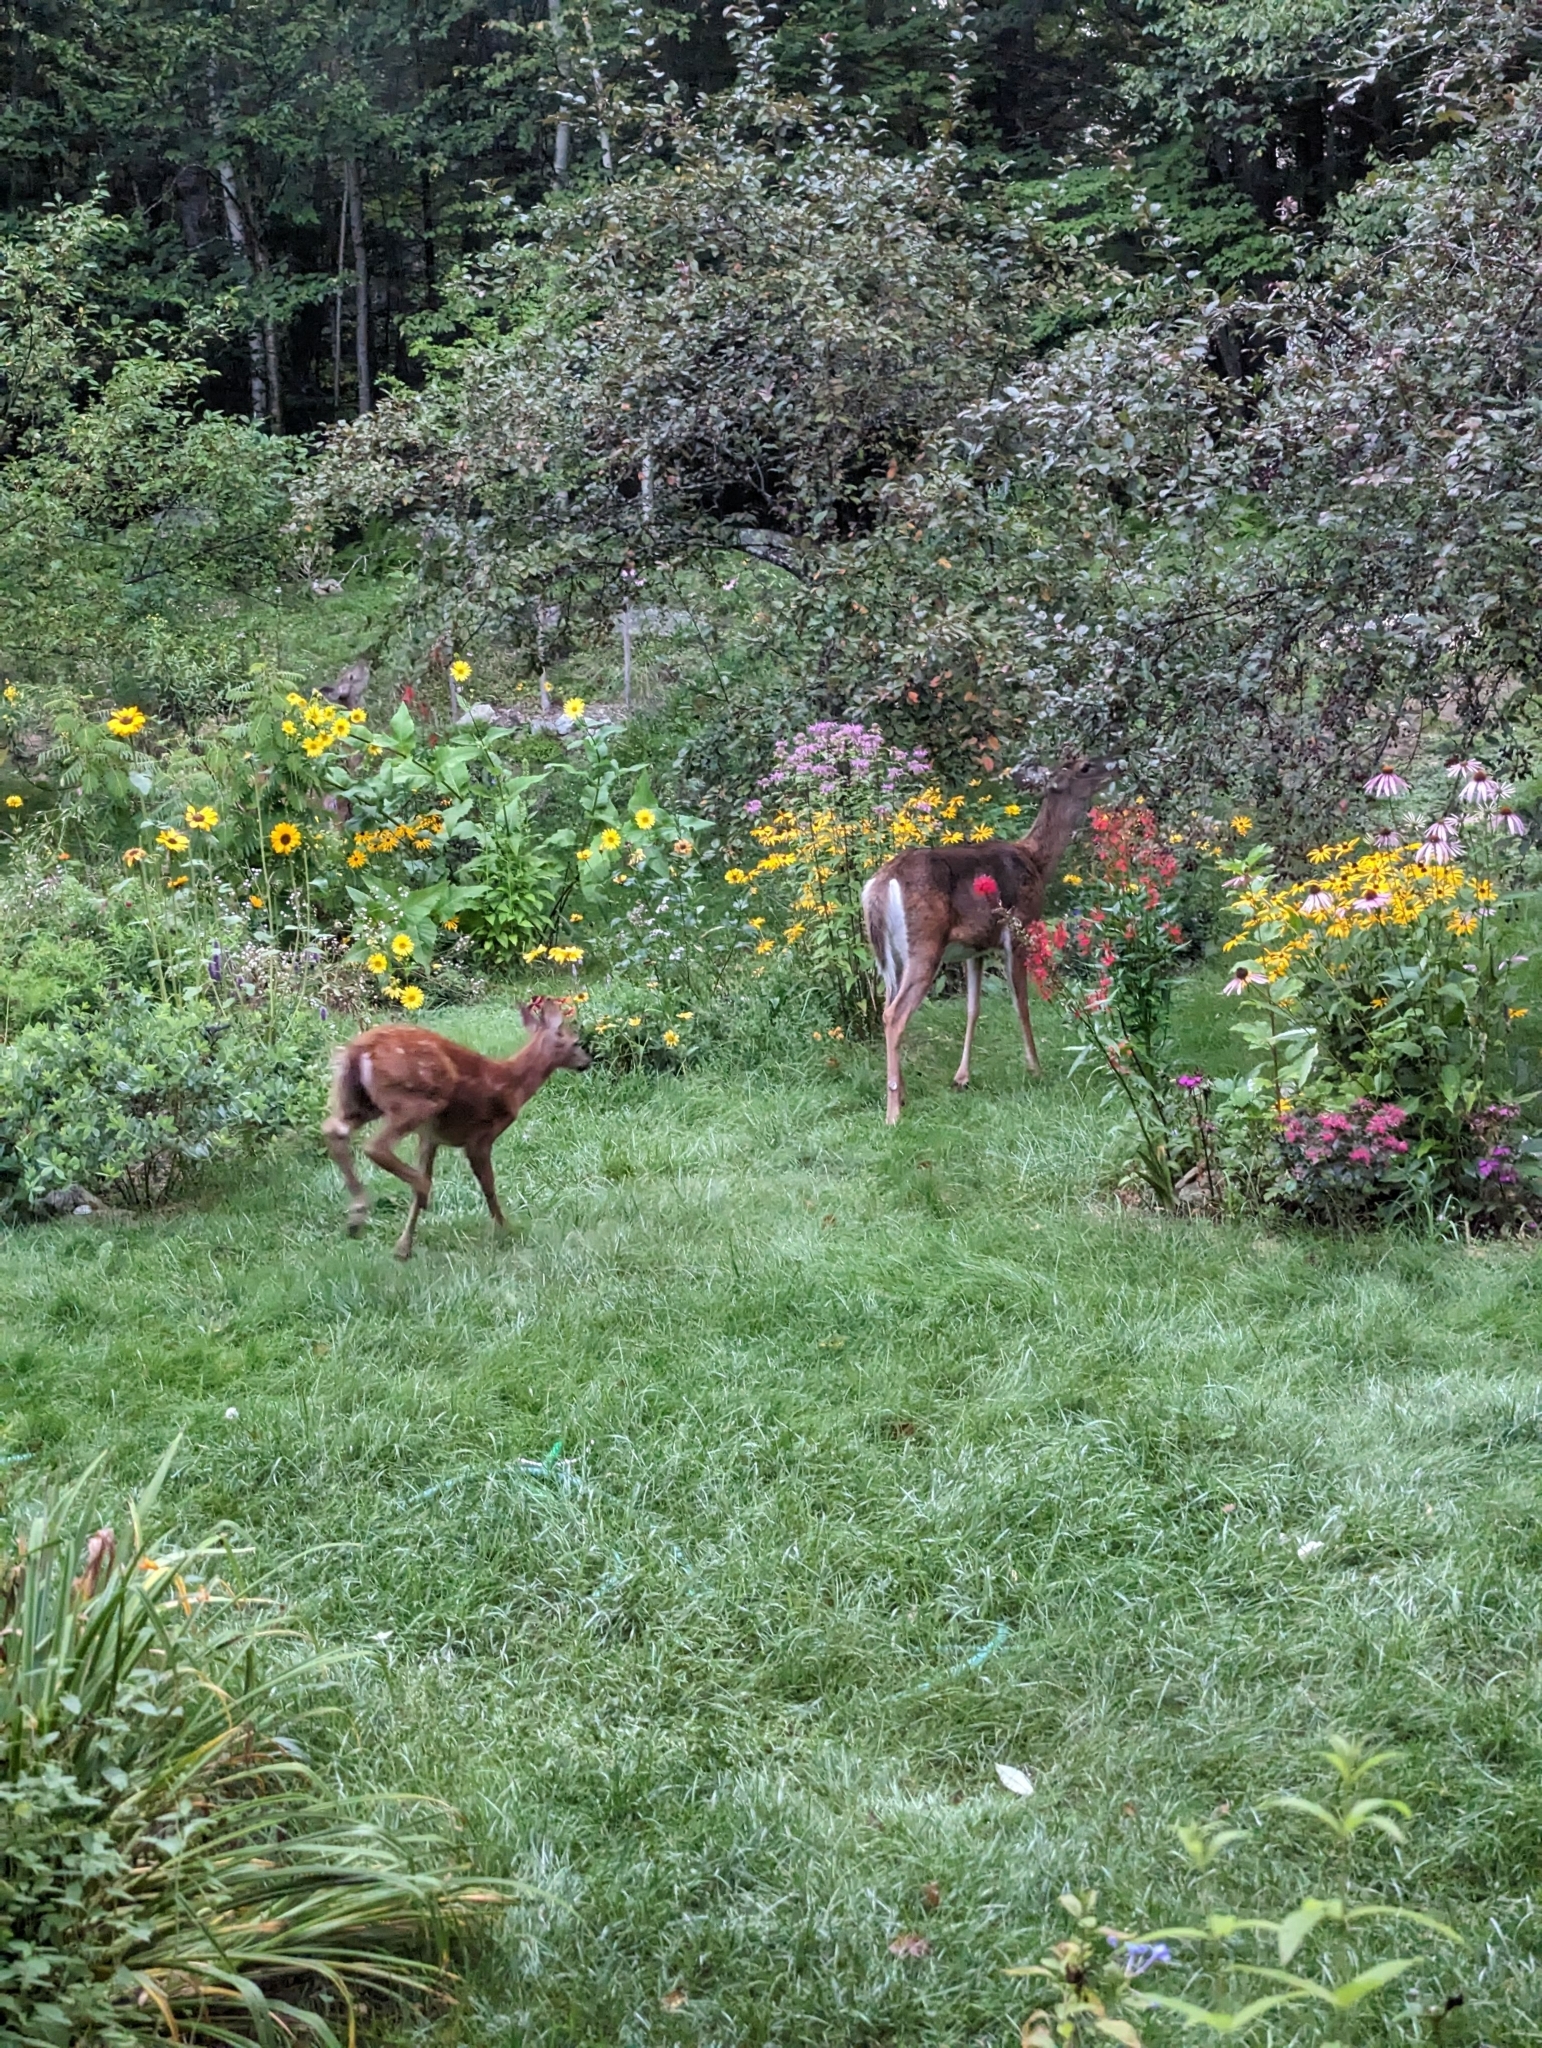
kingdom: Animalia
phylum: Chordata
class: Mammalia
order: Artiodactyla
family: Cervidae
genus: Odocoileus
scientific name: Odocoileus virginianus
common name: White-tailed deer
